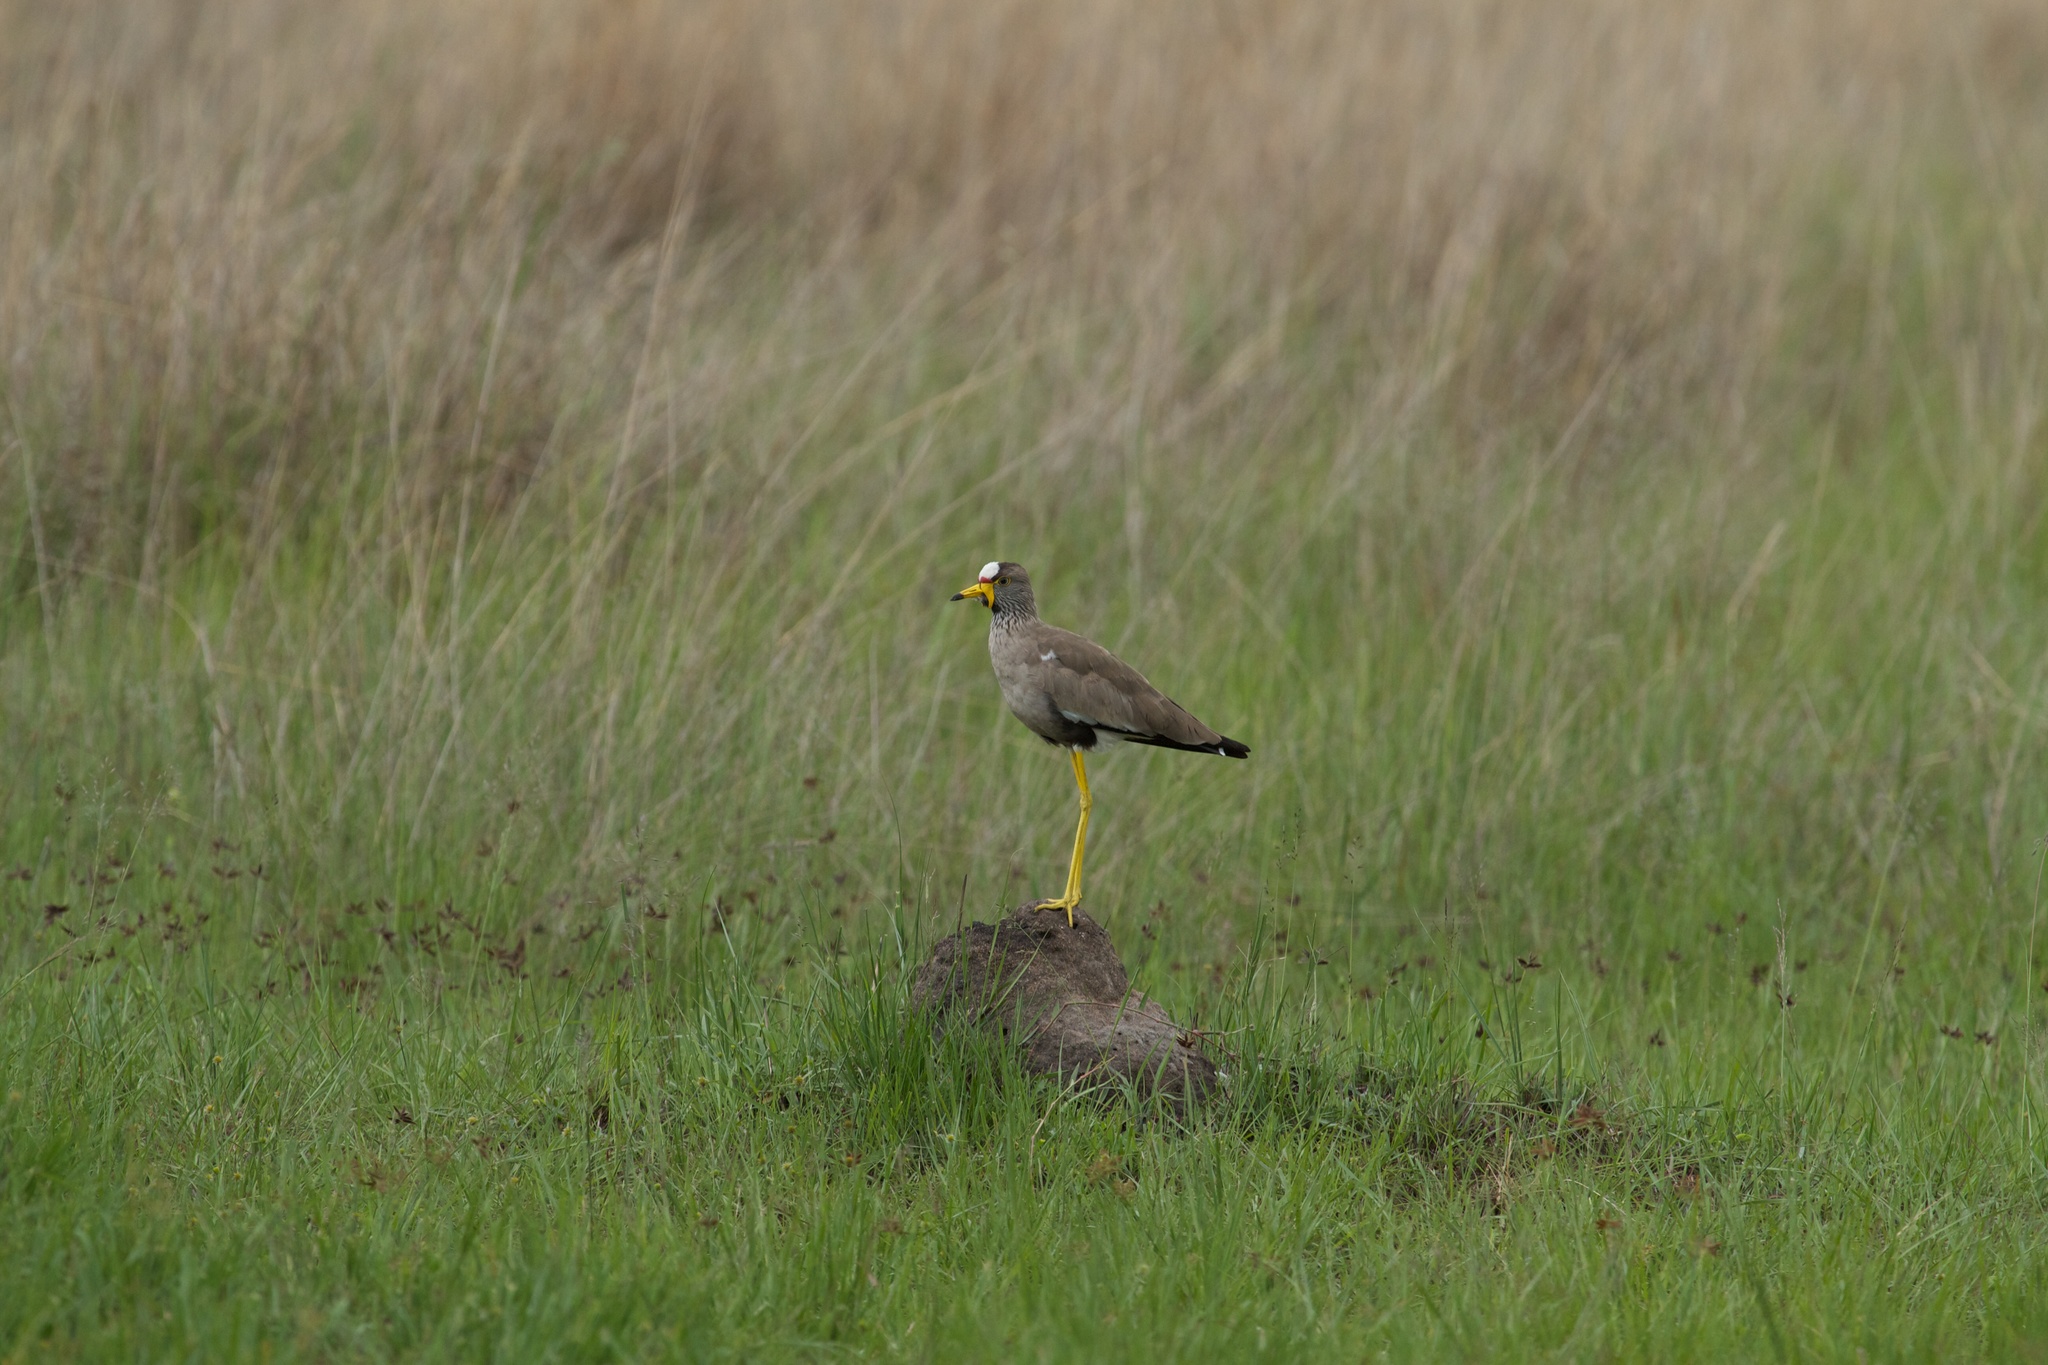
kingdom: Animalia
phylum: Chordata
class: Aves
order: Charadriiformes
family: Charadriidae
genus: Vanellus
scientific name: Vanellus senegallus
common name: African wattled lapwing
